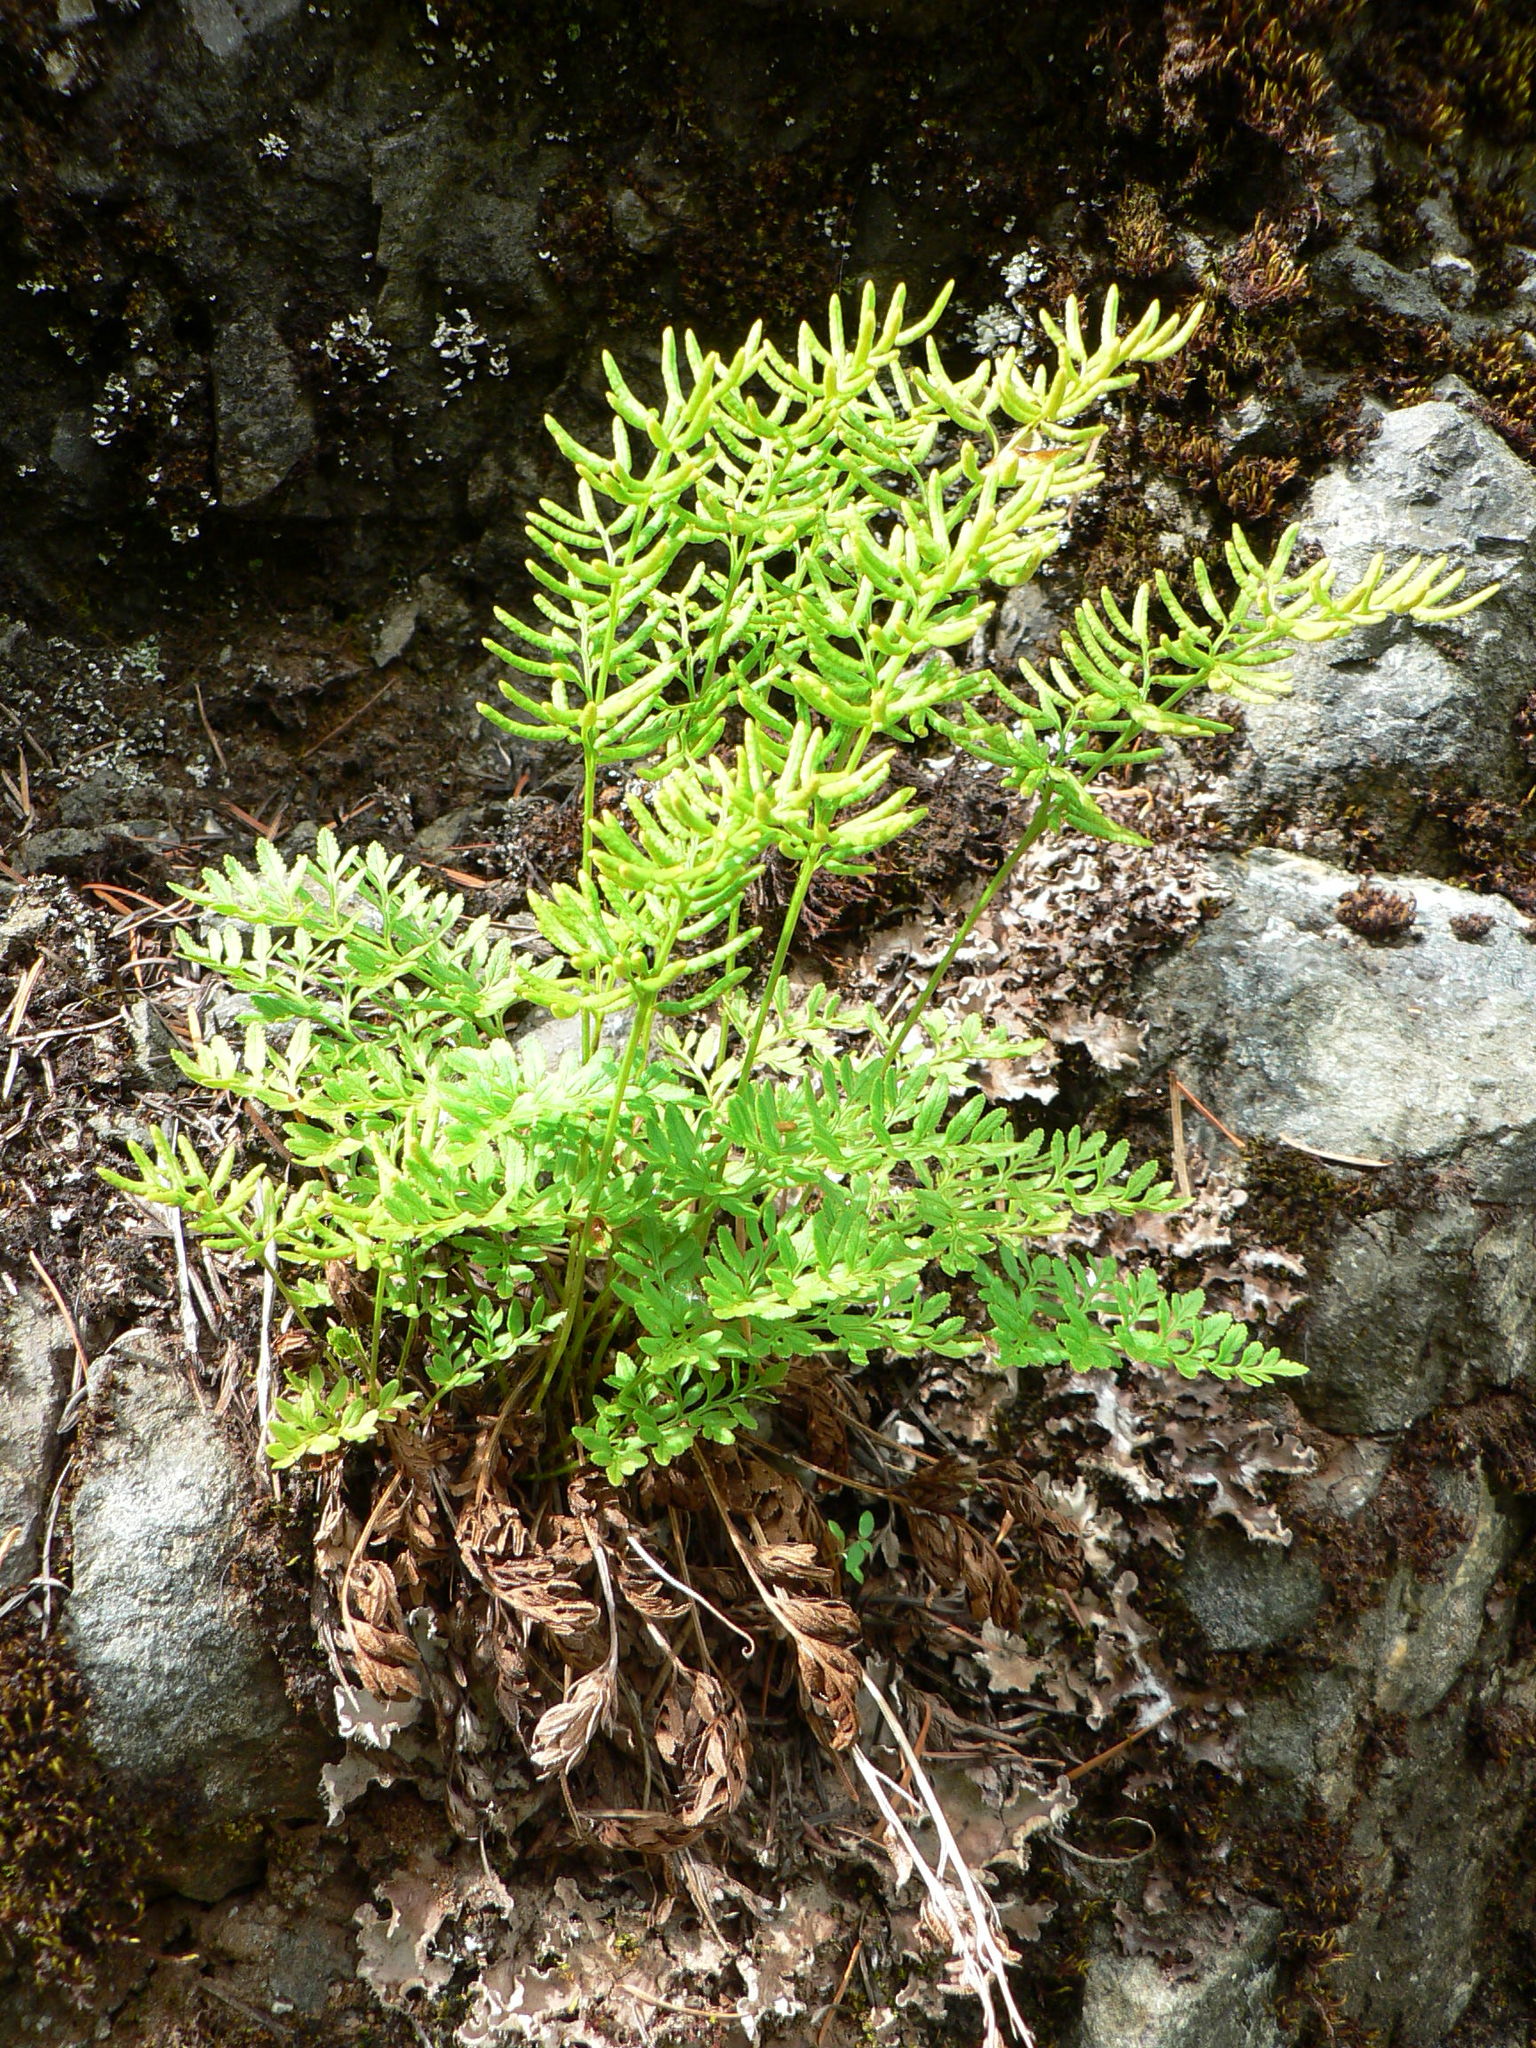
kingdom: Plantae
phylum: Tracheophyta
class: Polypodiopsida
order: Polypodiales
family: Pteridaceae
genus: Cryptogramma
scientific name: Cryptogramma acrostichoides
